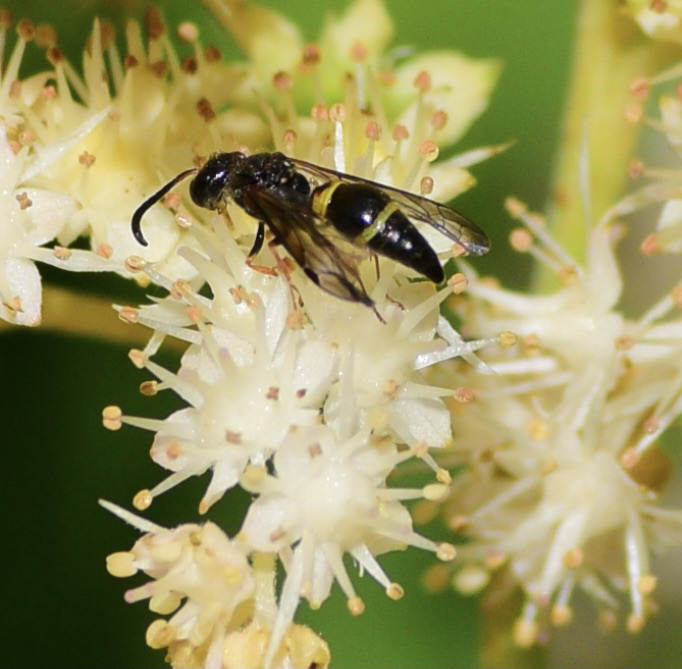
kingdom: Animalia
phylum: Arthropoda
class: Insecta
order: Hymenoptera
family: Vespidae
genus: Ancistrocerus
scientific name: Ancistrocerus unifasciatus
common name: One-banded mason wasp
